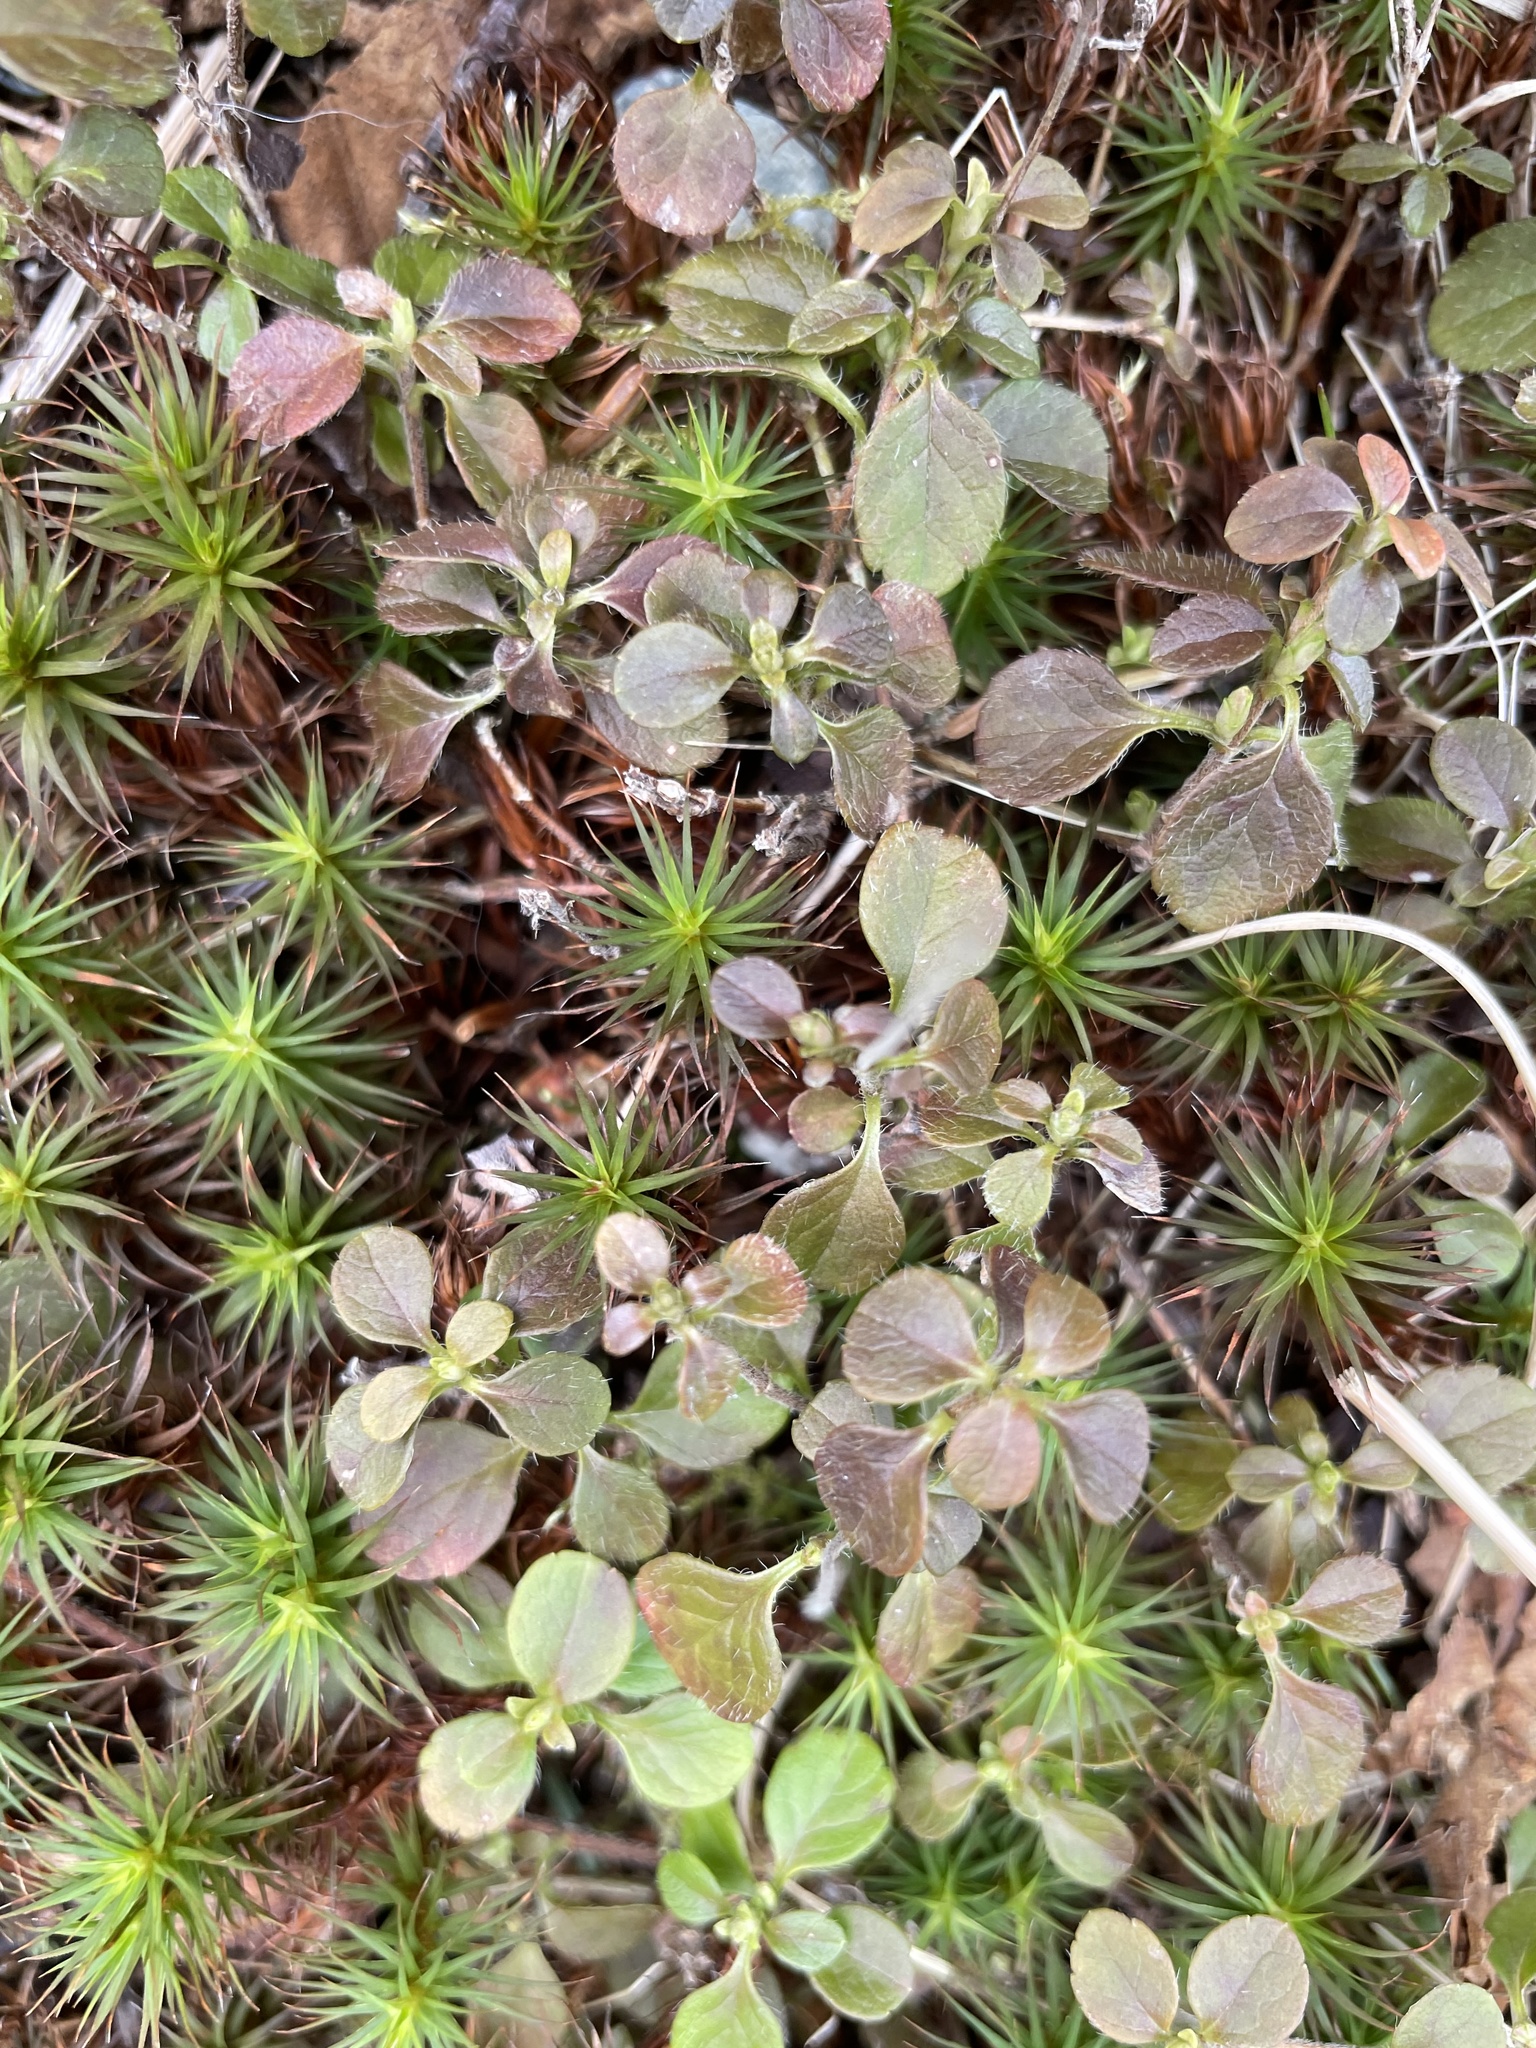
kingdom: Plantae
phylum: Tracheophyta
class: Magnoliopsida
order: Dipsacales
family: Caprifoliaceae
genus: Linnaea
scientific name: Linnaea borealis
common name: Twinflower
